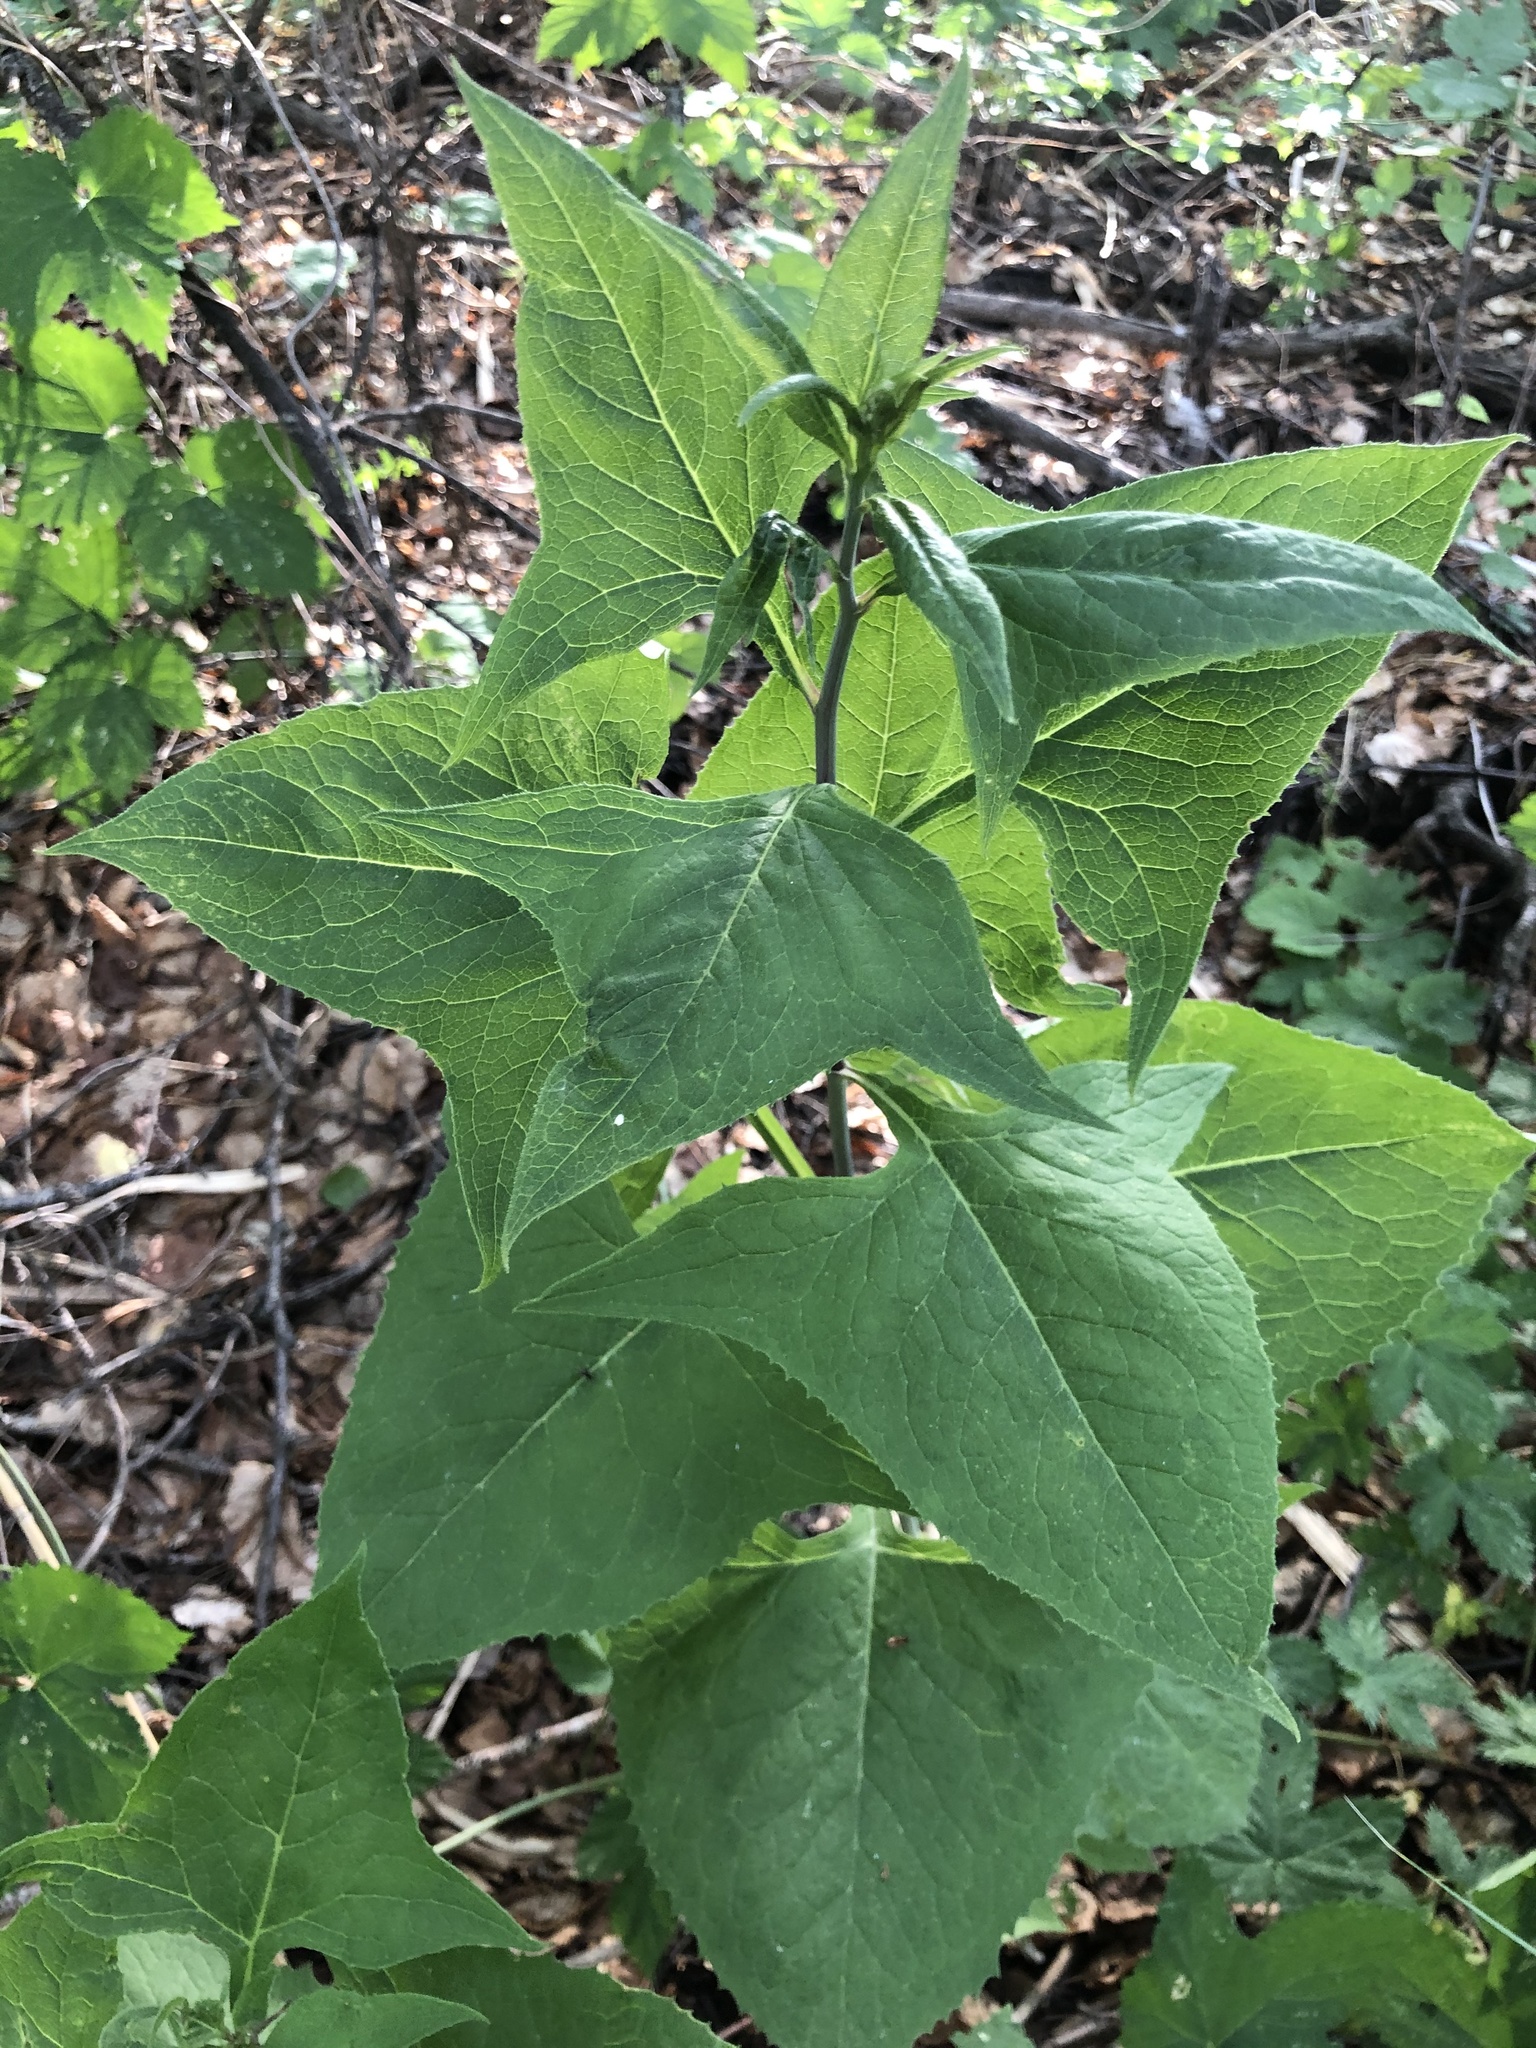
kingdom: Plantae
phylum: Tracheophyta
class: Magnoliopsida
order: Asterales
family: Asteraceae
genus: Parasenecio
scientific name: Parasenecio hastatus
